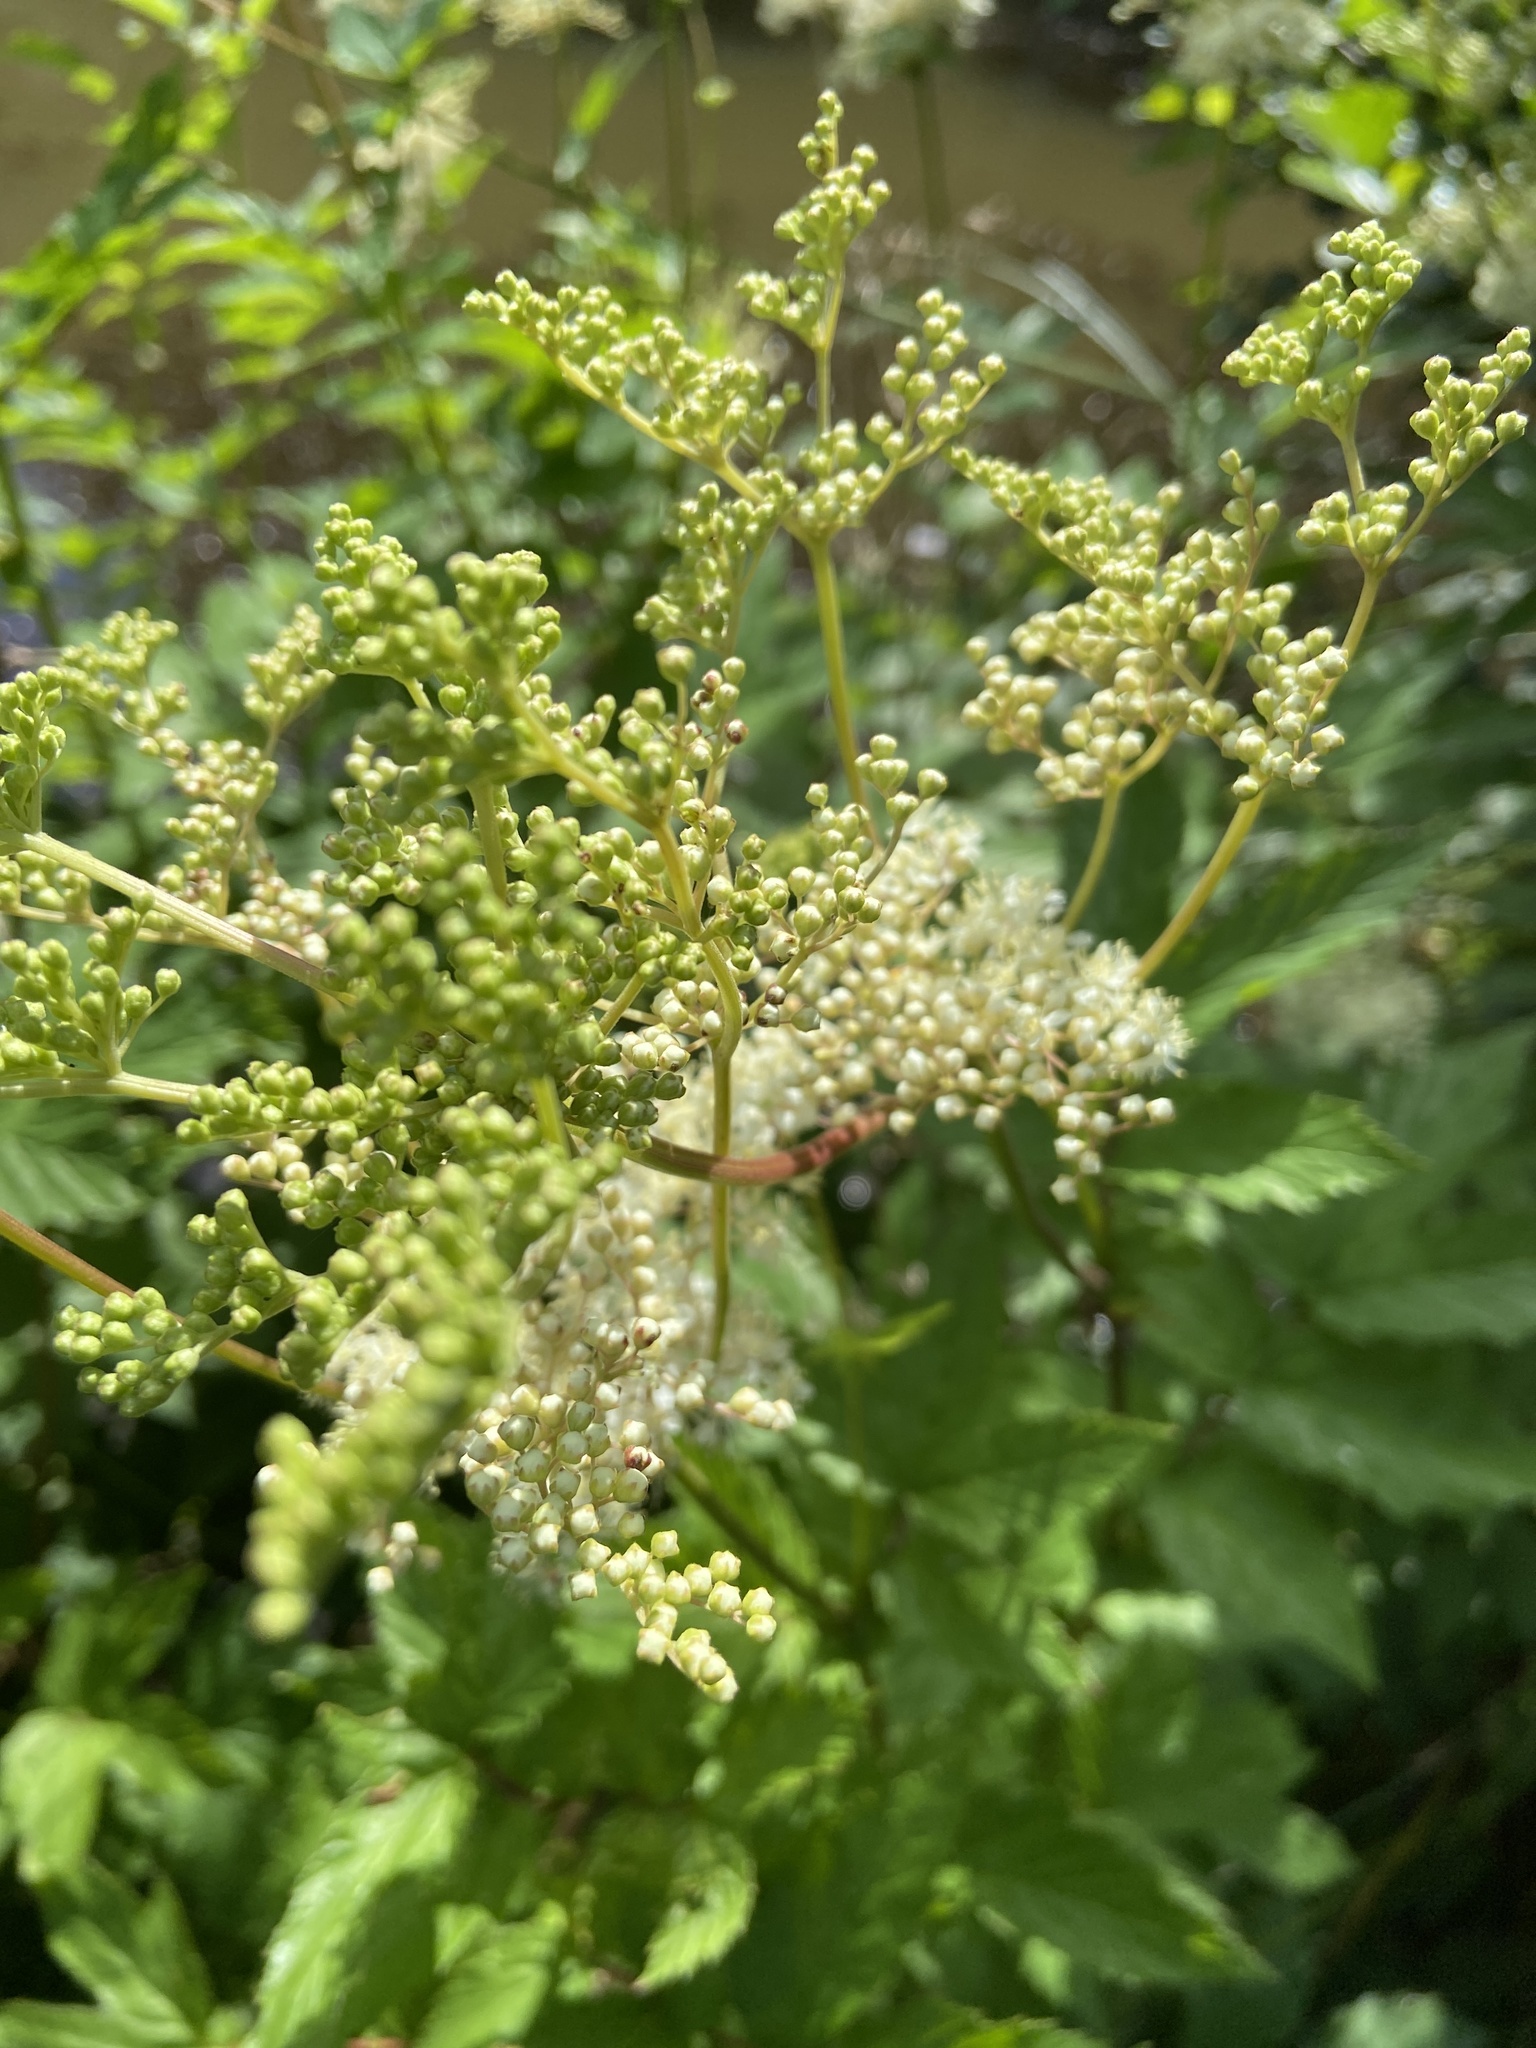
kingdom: Plantae
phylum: Tracheophyta
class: Magnoliopsida
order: Rosales
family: Rosaceae
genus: Filipendula
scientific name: Filipendula ulmaria
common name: Meadowsweet
